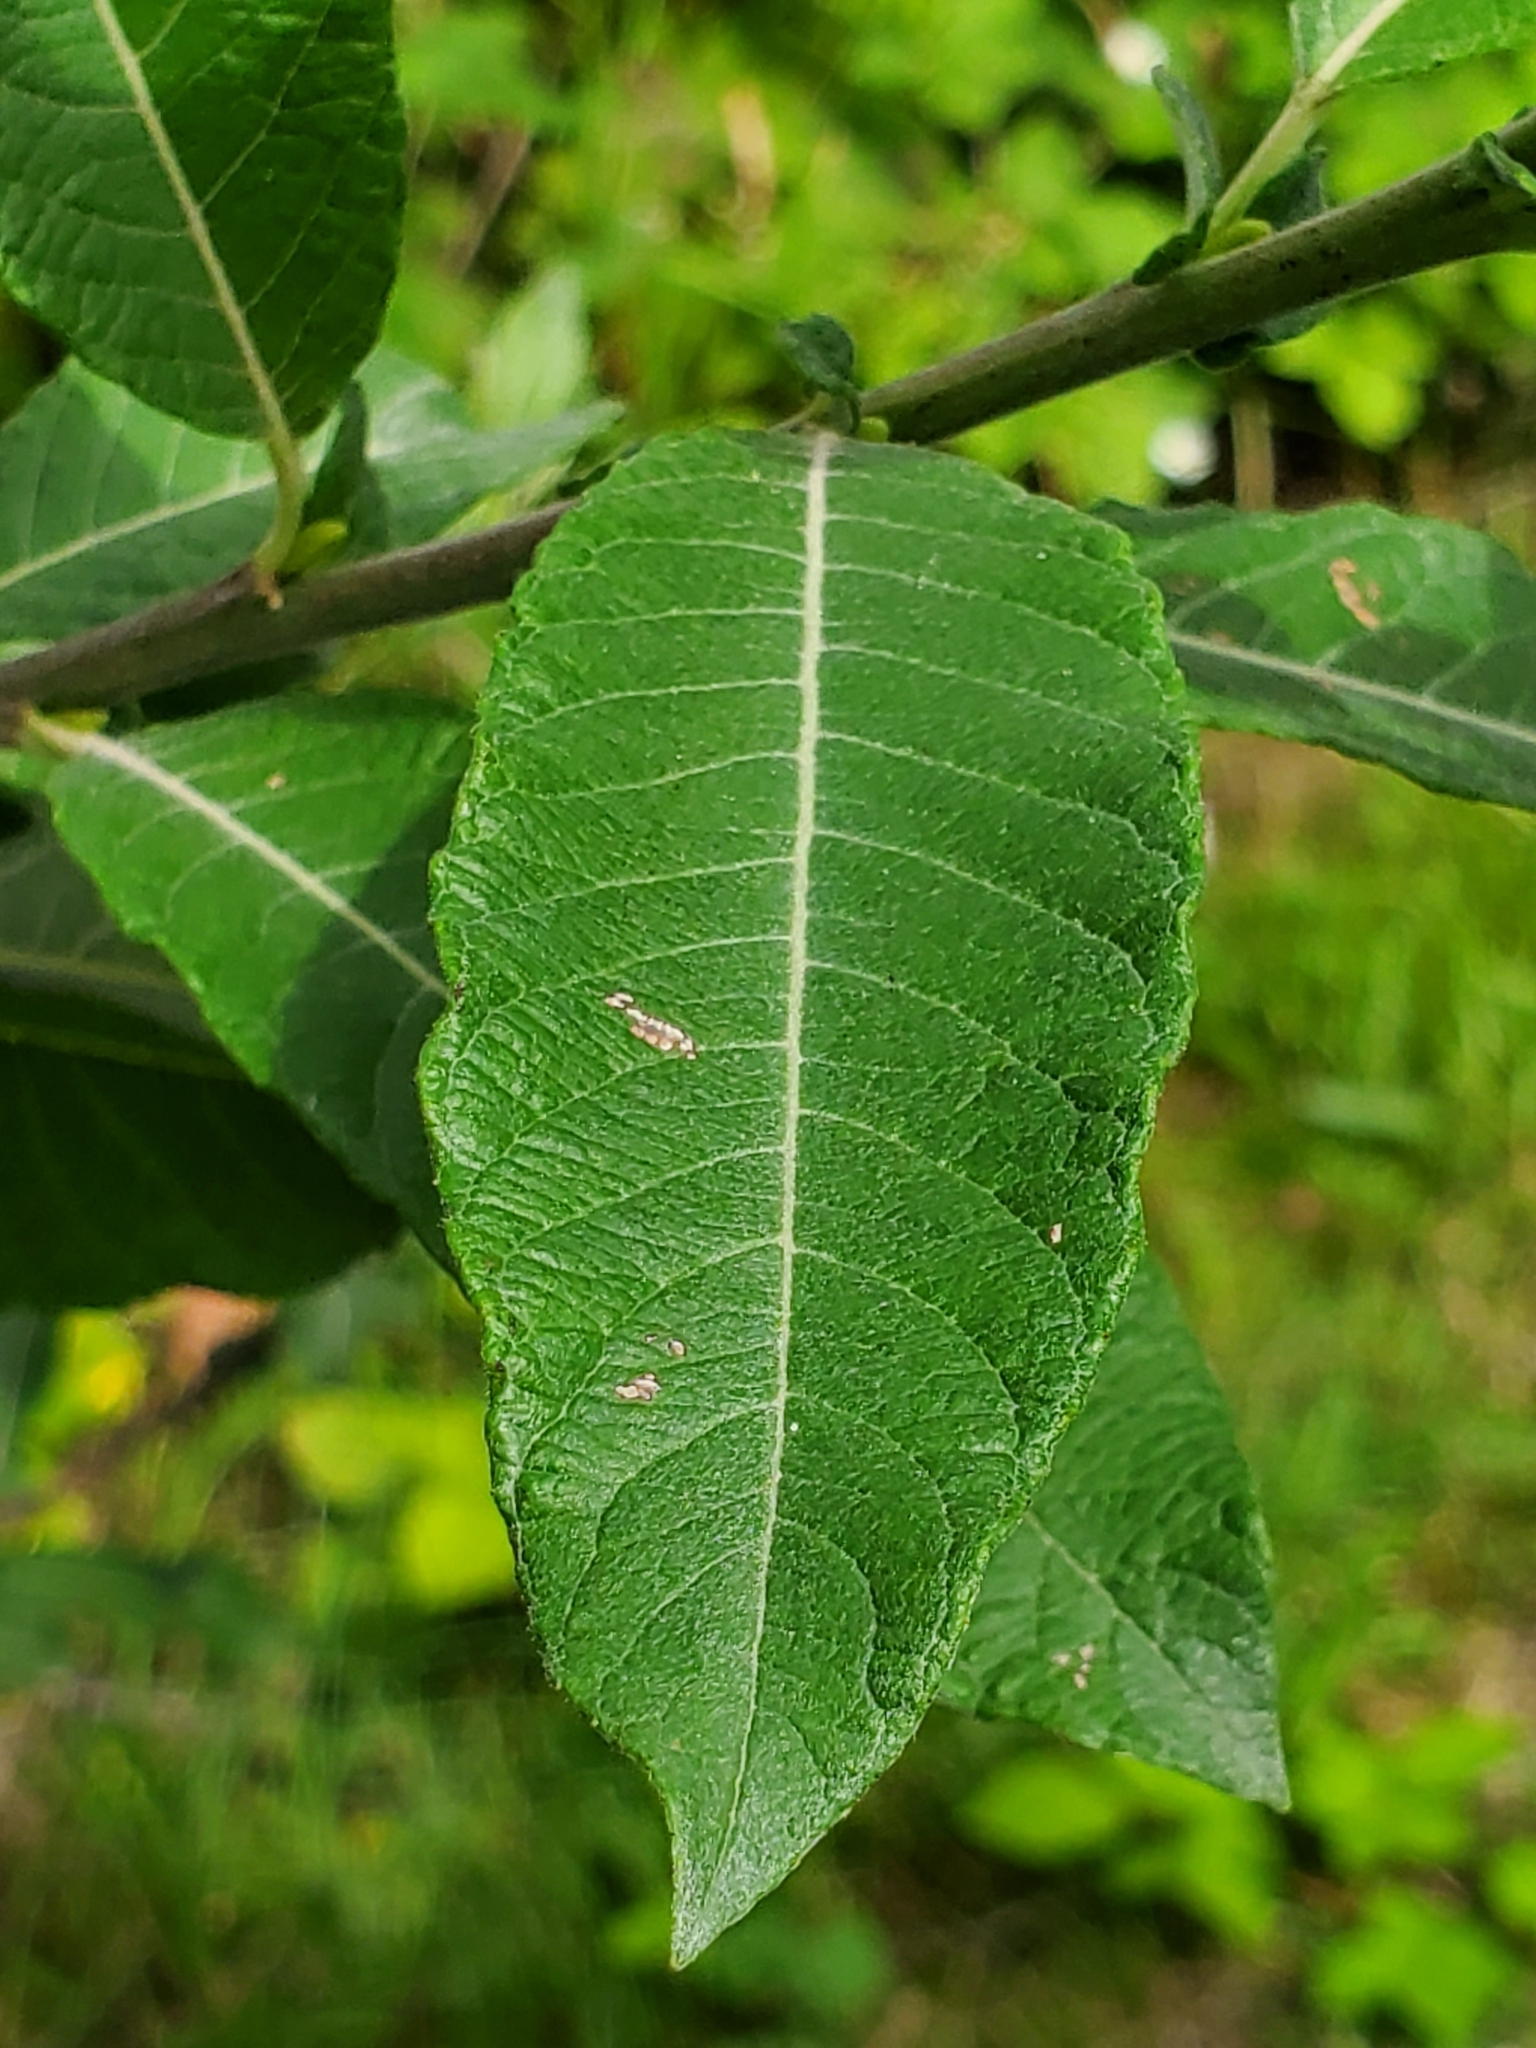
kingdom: Plantae
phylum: Tracheophyta
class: Magnoliopsida
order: Malpighiales
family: Salicaceae
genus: Salix
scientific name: Salix sitchensis
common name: Sitka willow
